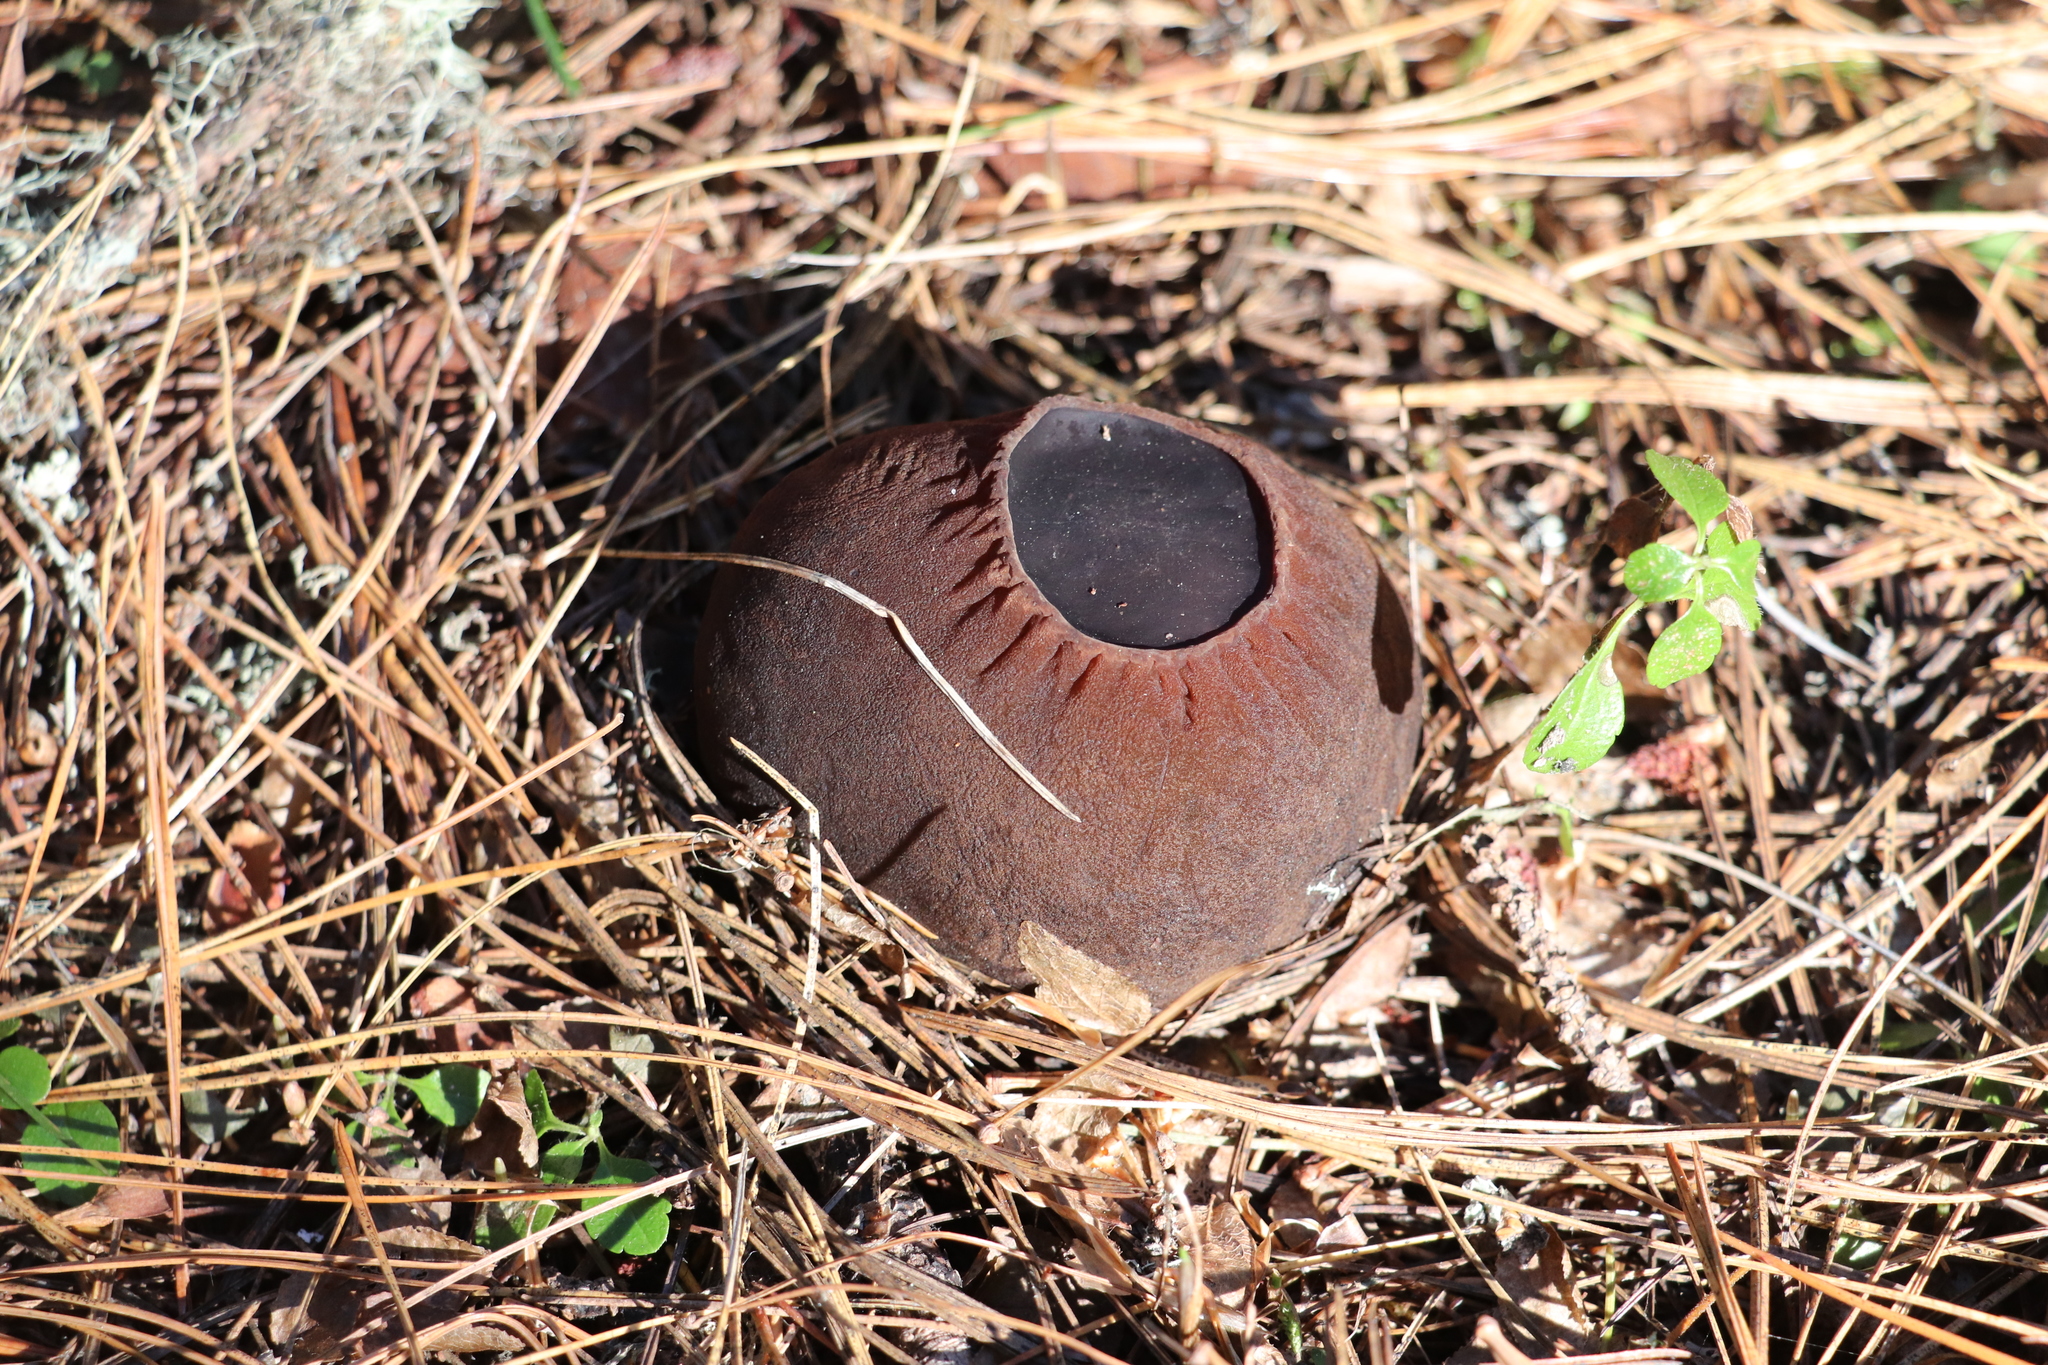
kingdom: Fungi
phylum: Ascomycota
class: Pezizomycetes
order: Pezizales
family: Sarcosomataceae
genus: Sarcosoma
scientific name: Sarcosoma globosum
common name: Charred-pancake cup
